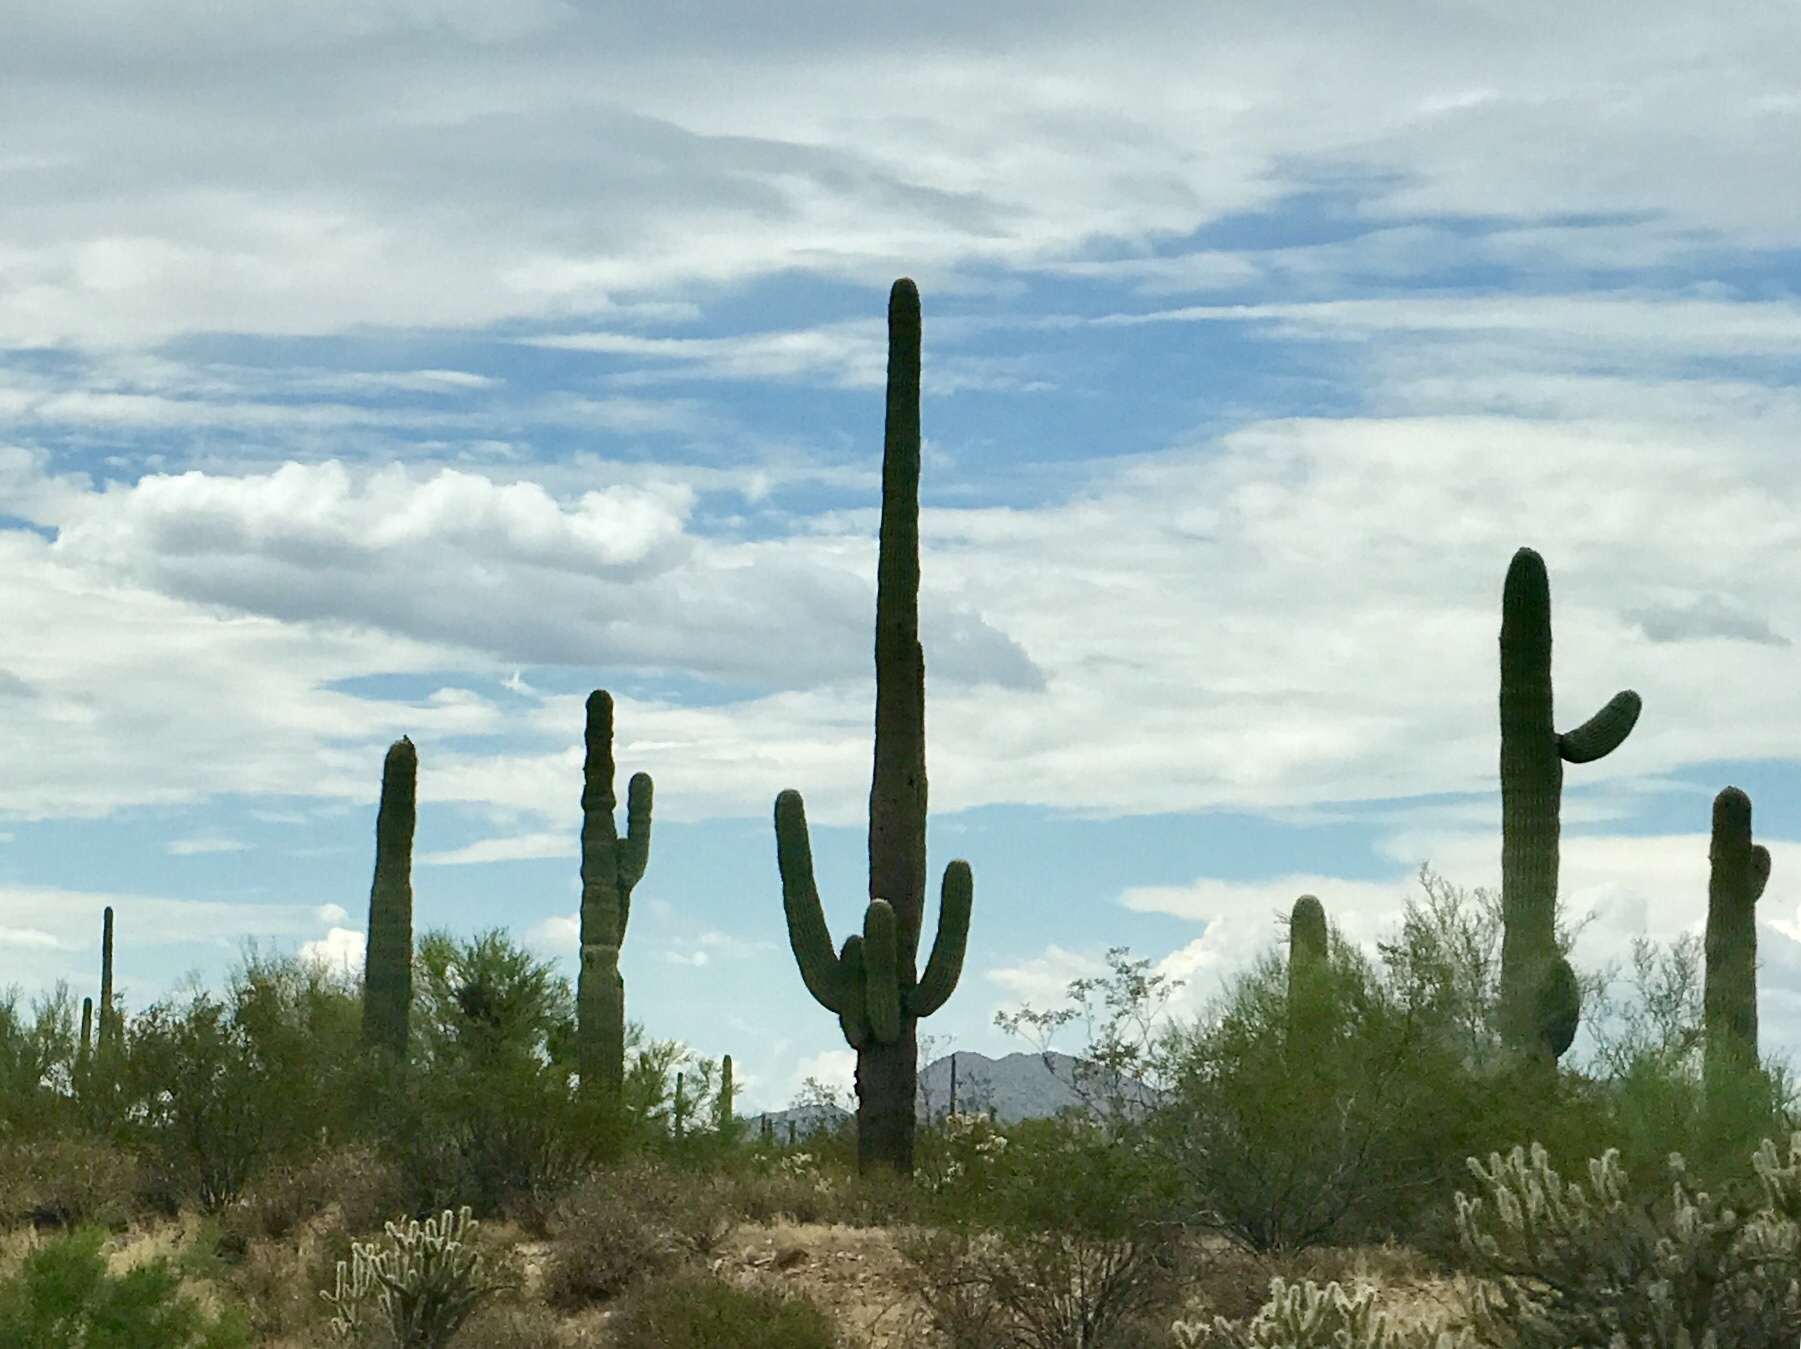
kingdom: Plantae
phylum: Tracheophyta
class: Magnoliopsida
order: Caryophyllales
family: Cactaceae
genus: Carnegiea
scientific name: Carnegiea gigantea
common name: Saguaro
